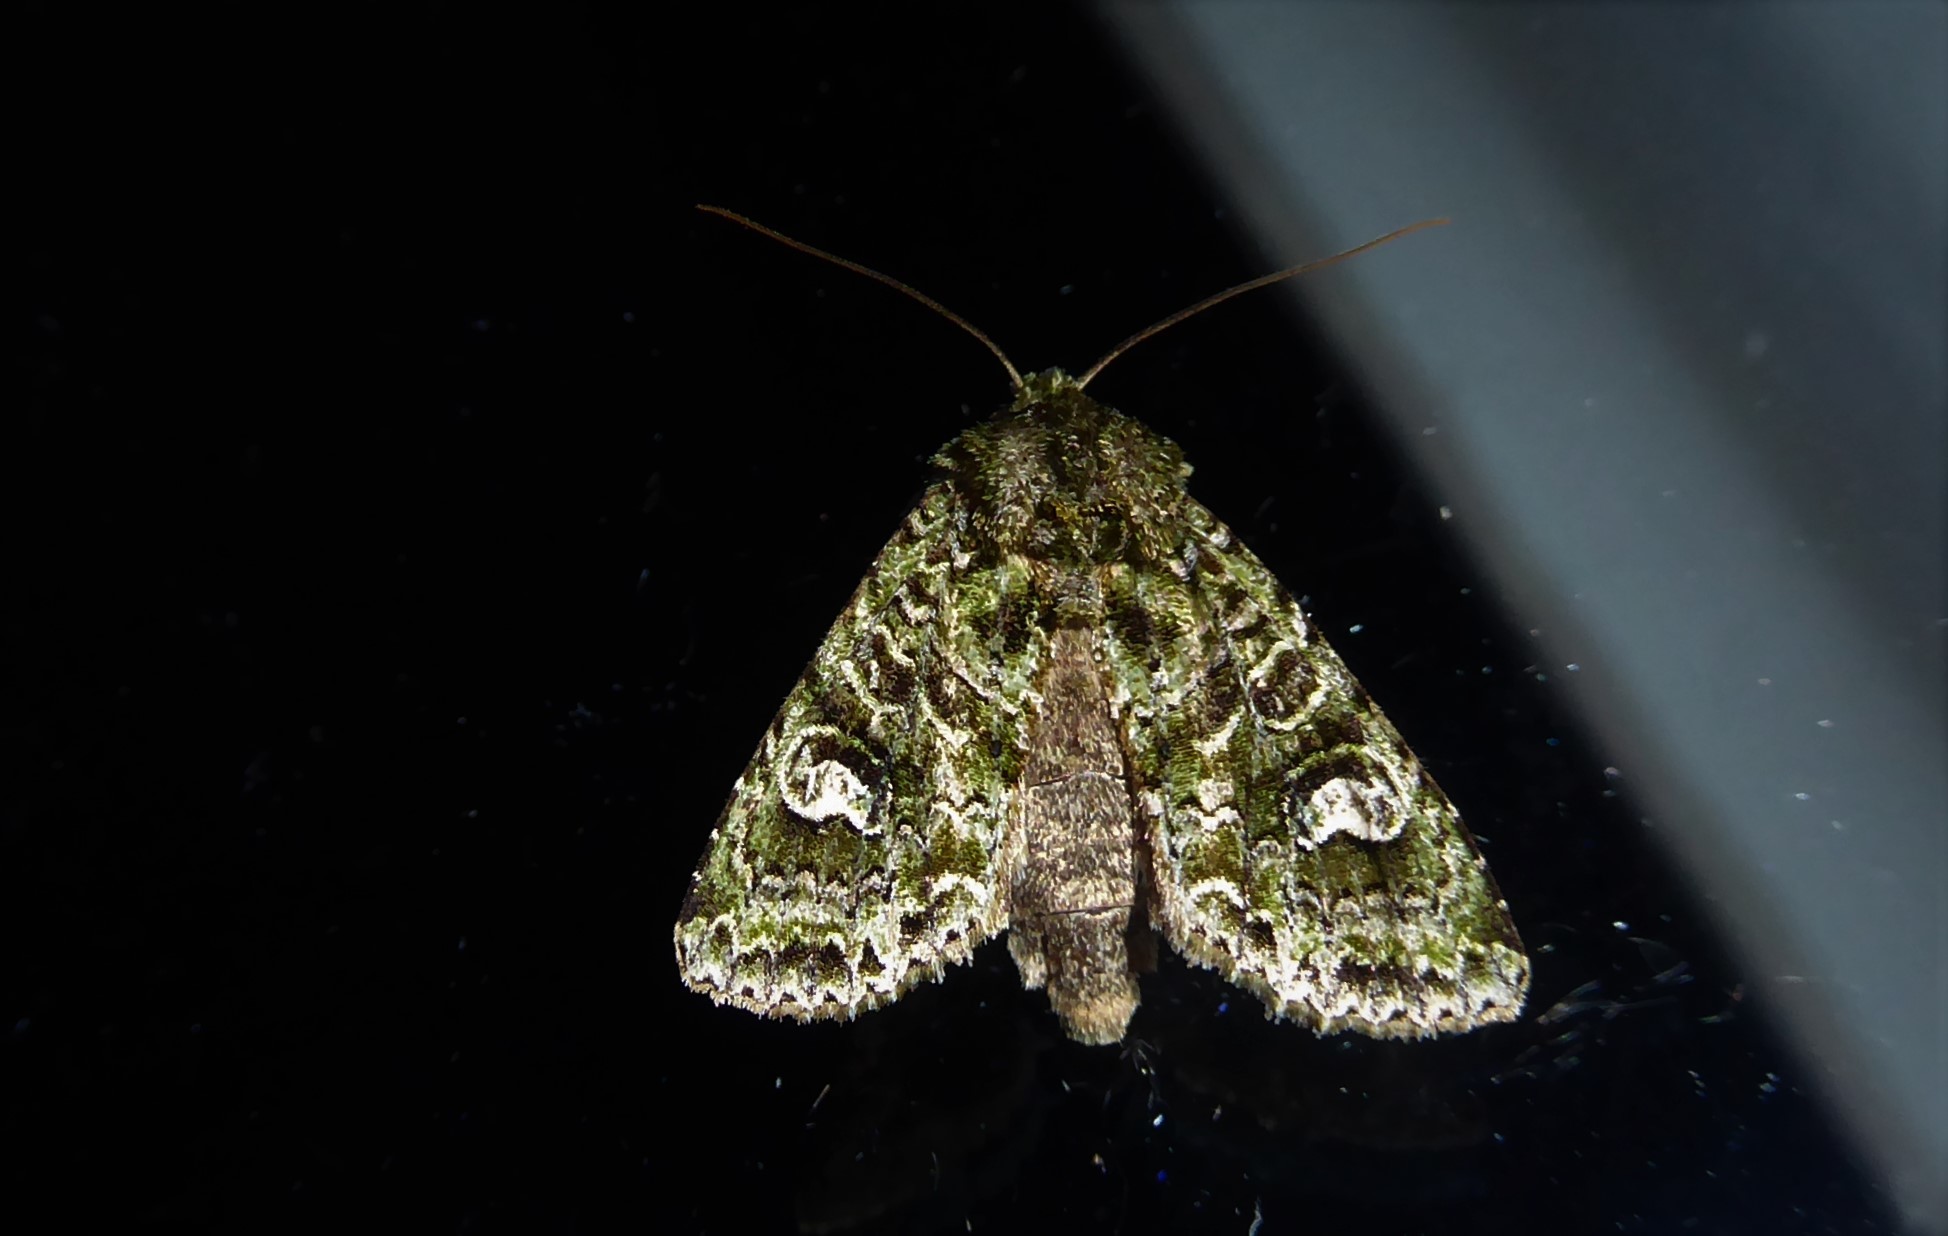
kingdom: Animalia
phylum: Arthropoda
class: Insecta
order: Lepidoptera
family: Noctuidae
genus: Ichneutica
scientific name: Ichneutica
